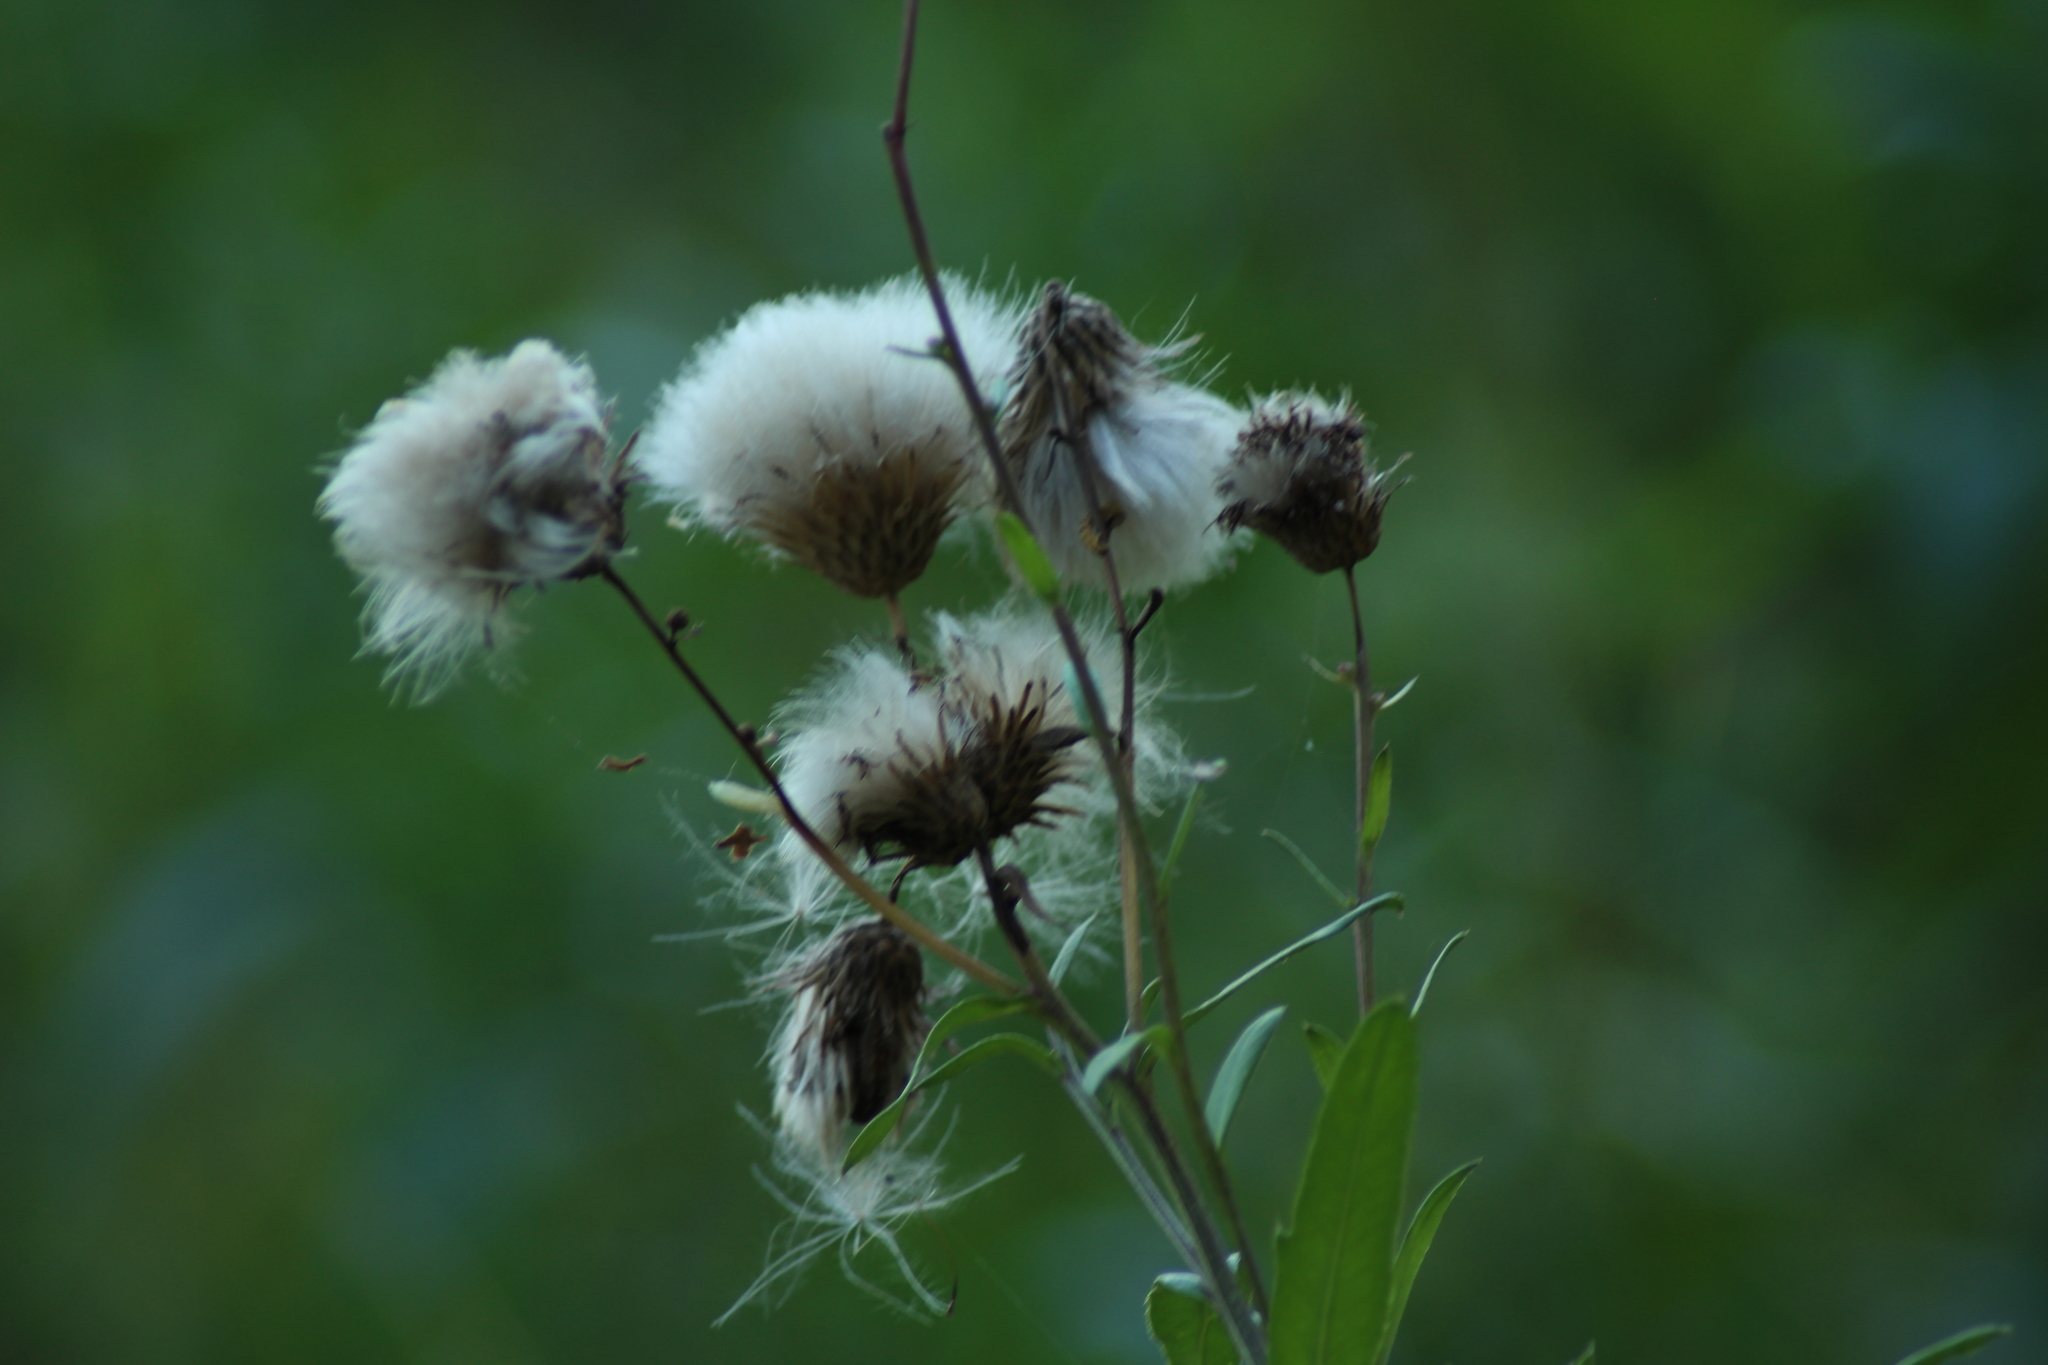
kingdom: Plantae
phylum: Tracheophyta
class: Magnoliopsida
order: Asterales
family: Asteraceae
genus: Cirsium
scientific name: Cirsium arvense
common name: Creeping thistle
